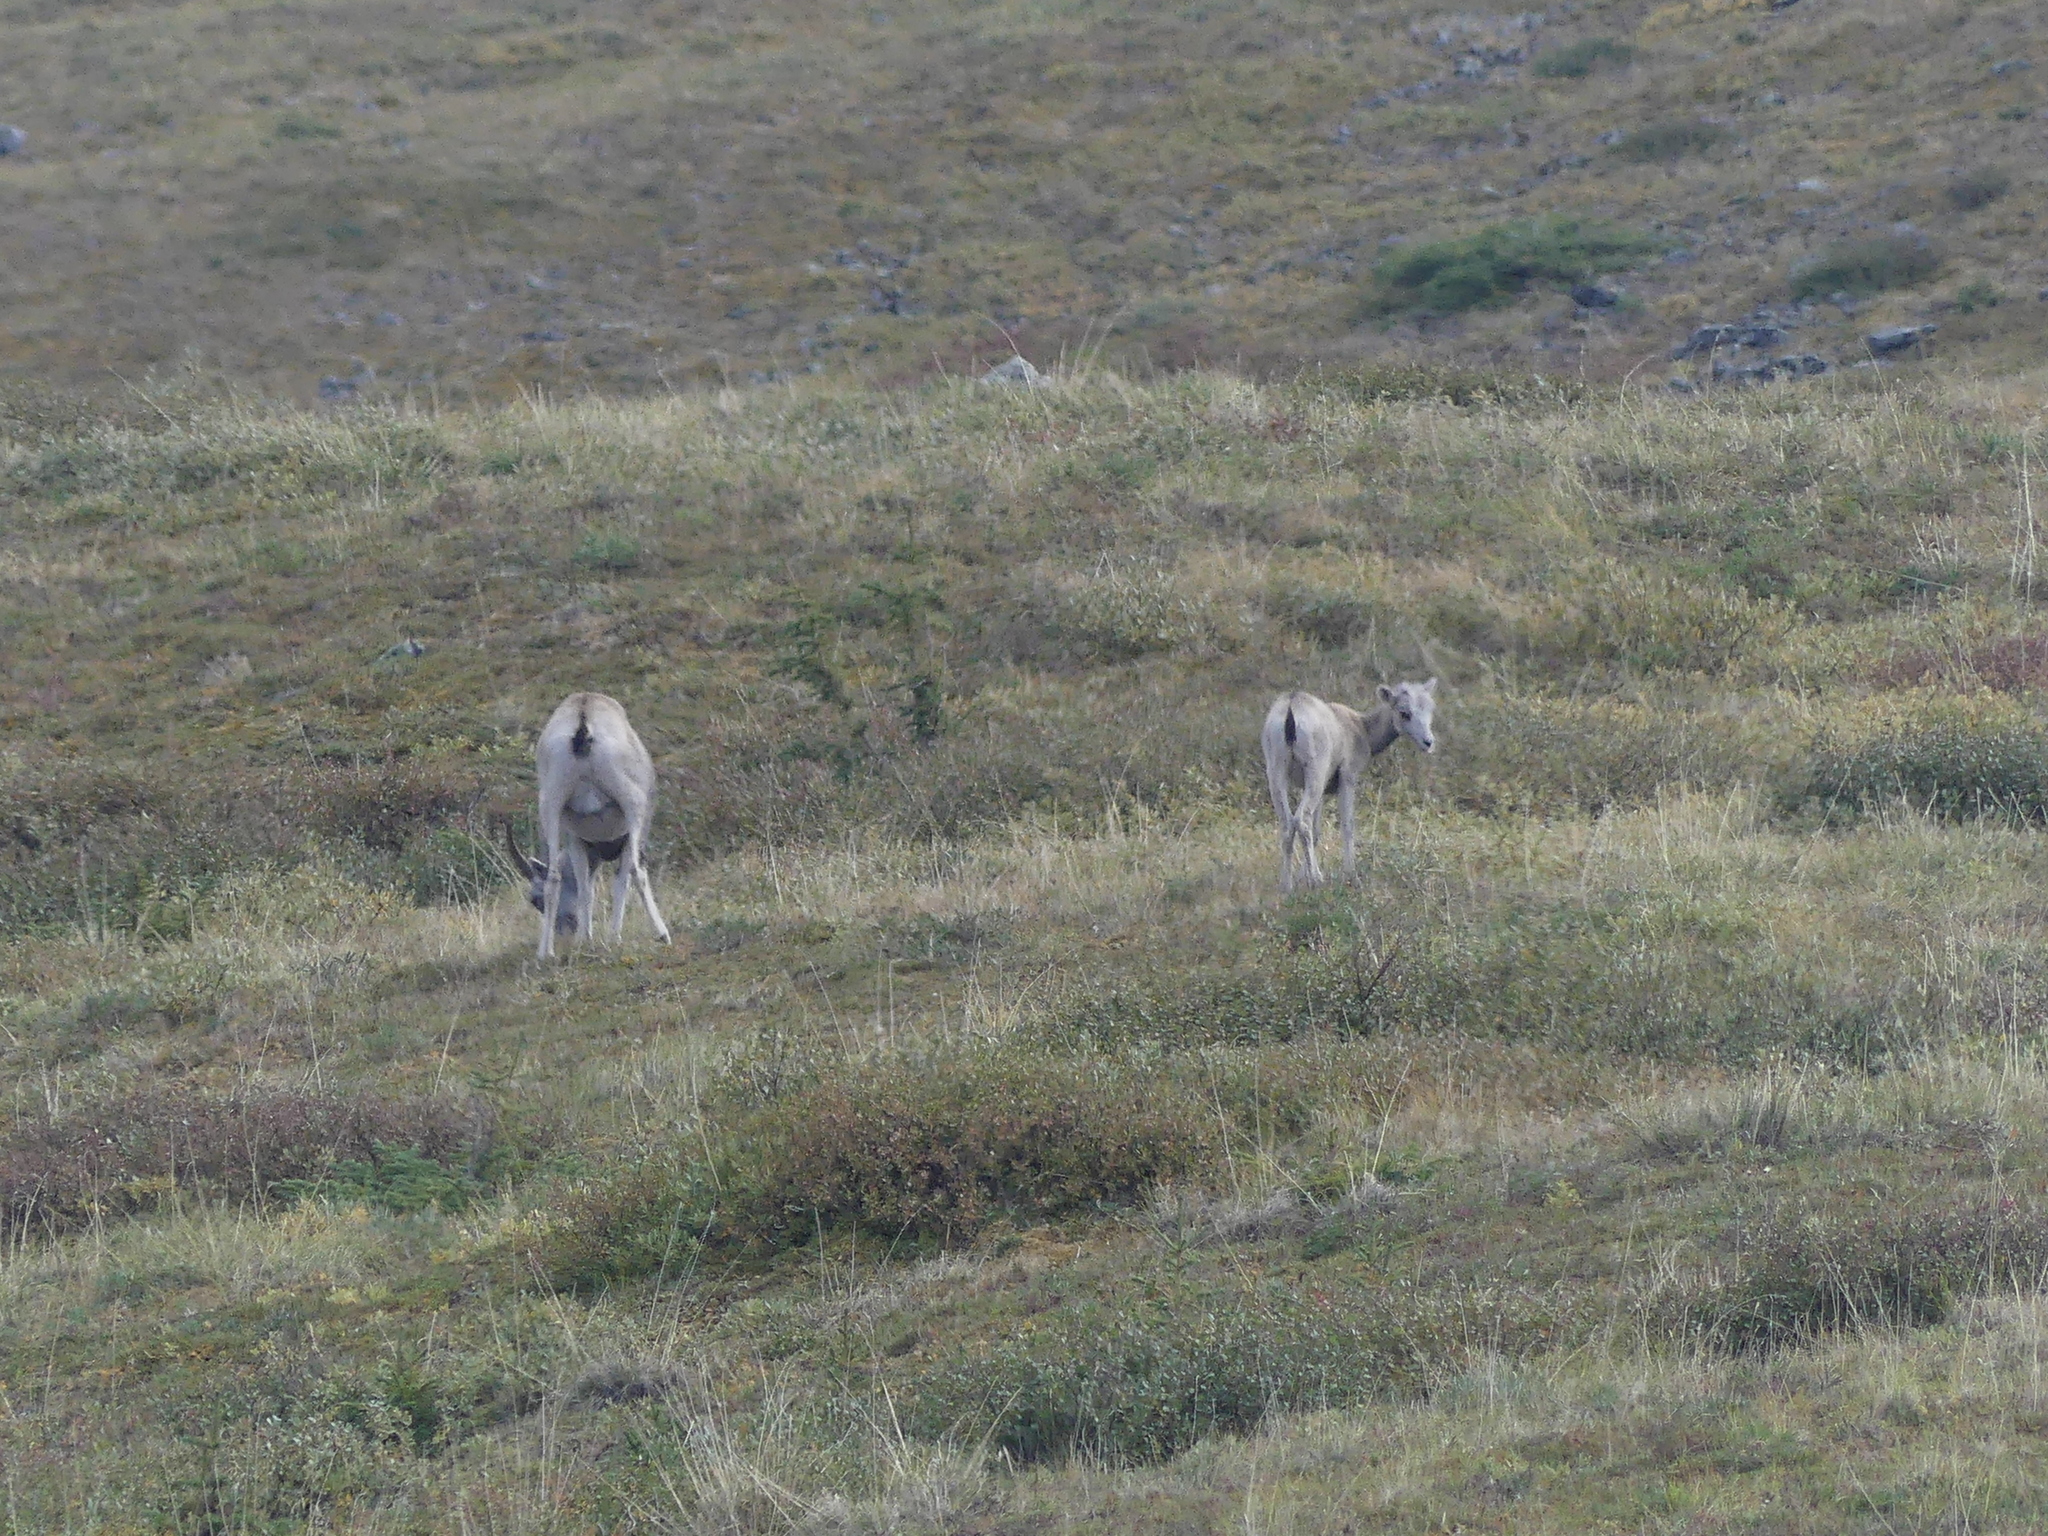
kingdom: Animalia
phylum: Chordata
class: Mammalia
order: Artiodactyla
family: Bovidae
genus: Ovis
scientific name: Ovis dalli
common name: Dall's sheep
